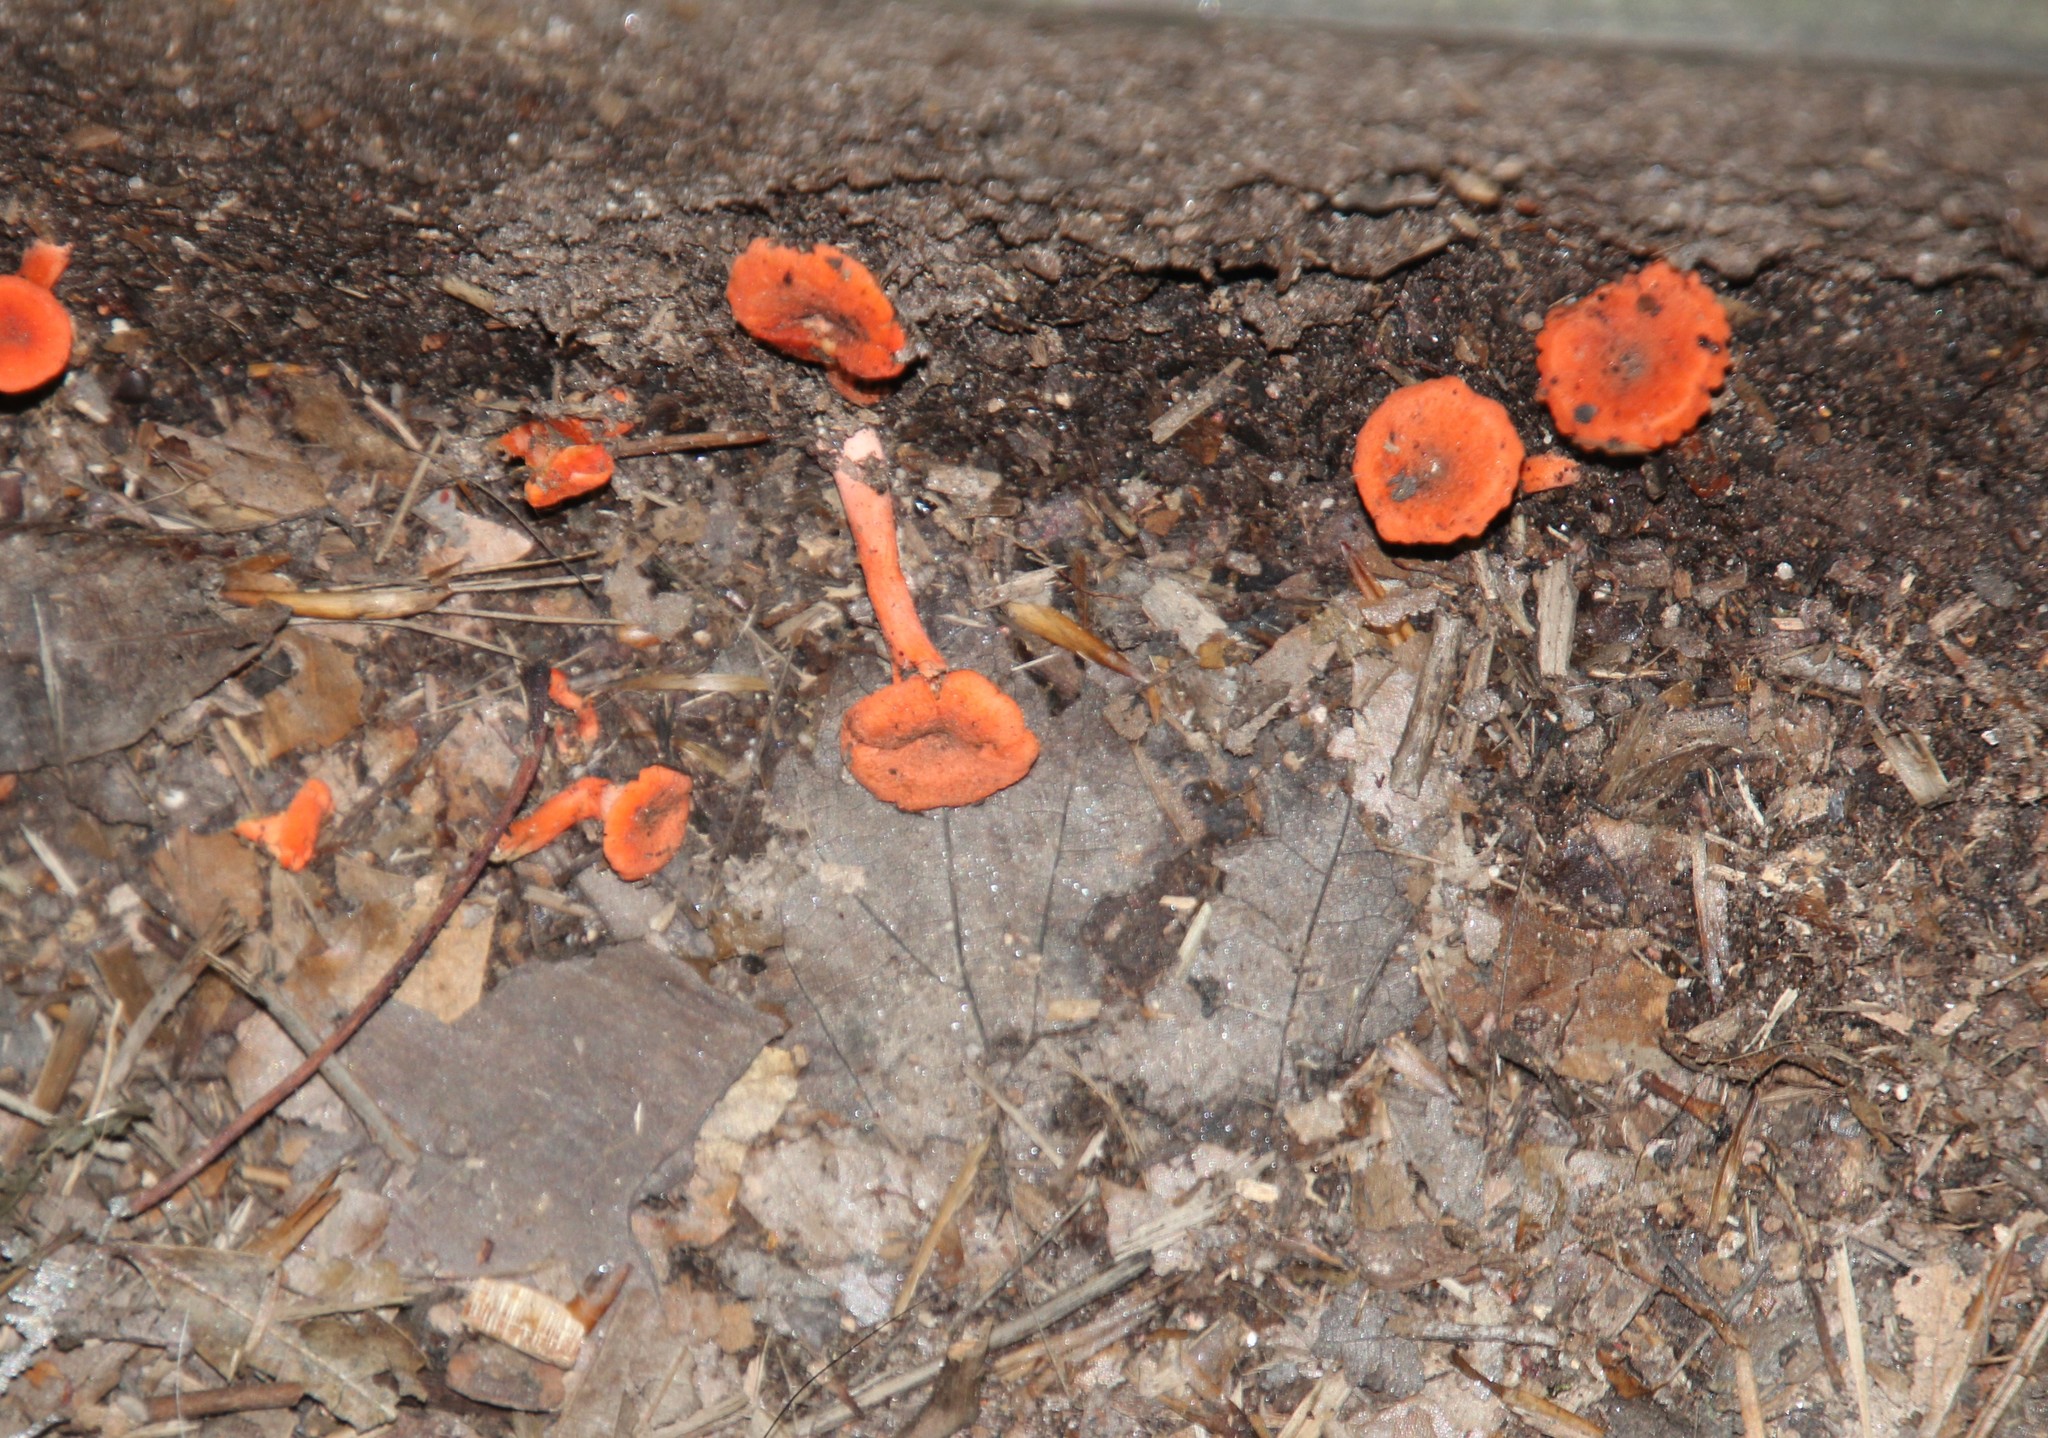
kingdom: Fungi
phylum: Basidiomycota
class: Agaricomycetes
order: Cantharellales
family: Hydnaceae
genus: Cantharellus
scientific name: Cantharellus cinnabarinus
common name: Cinnabar chanterelle
